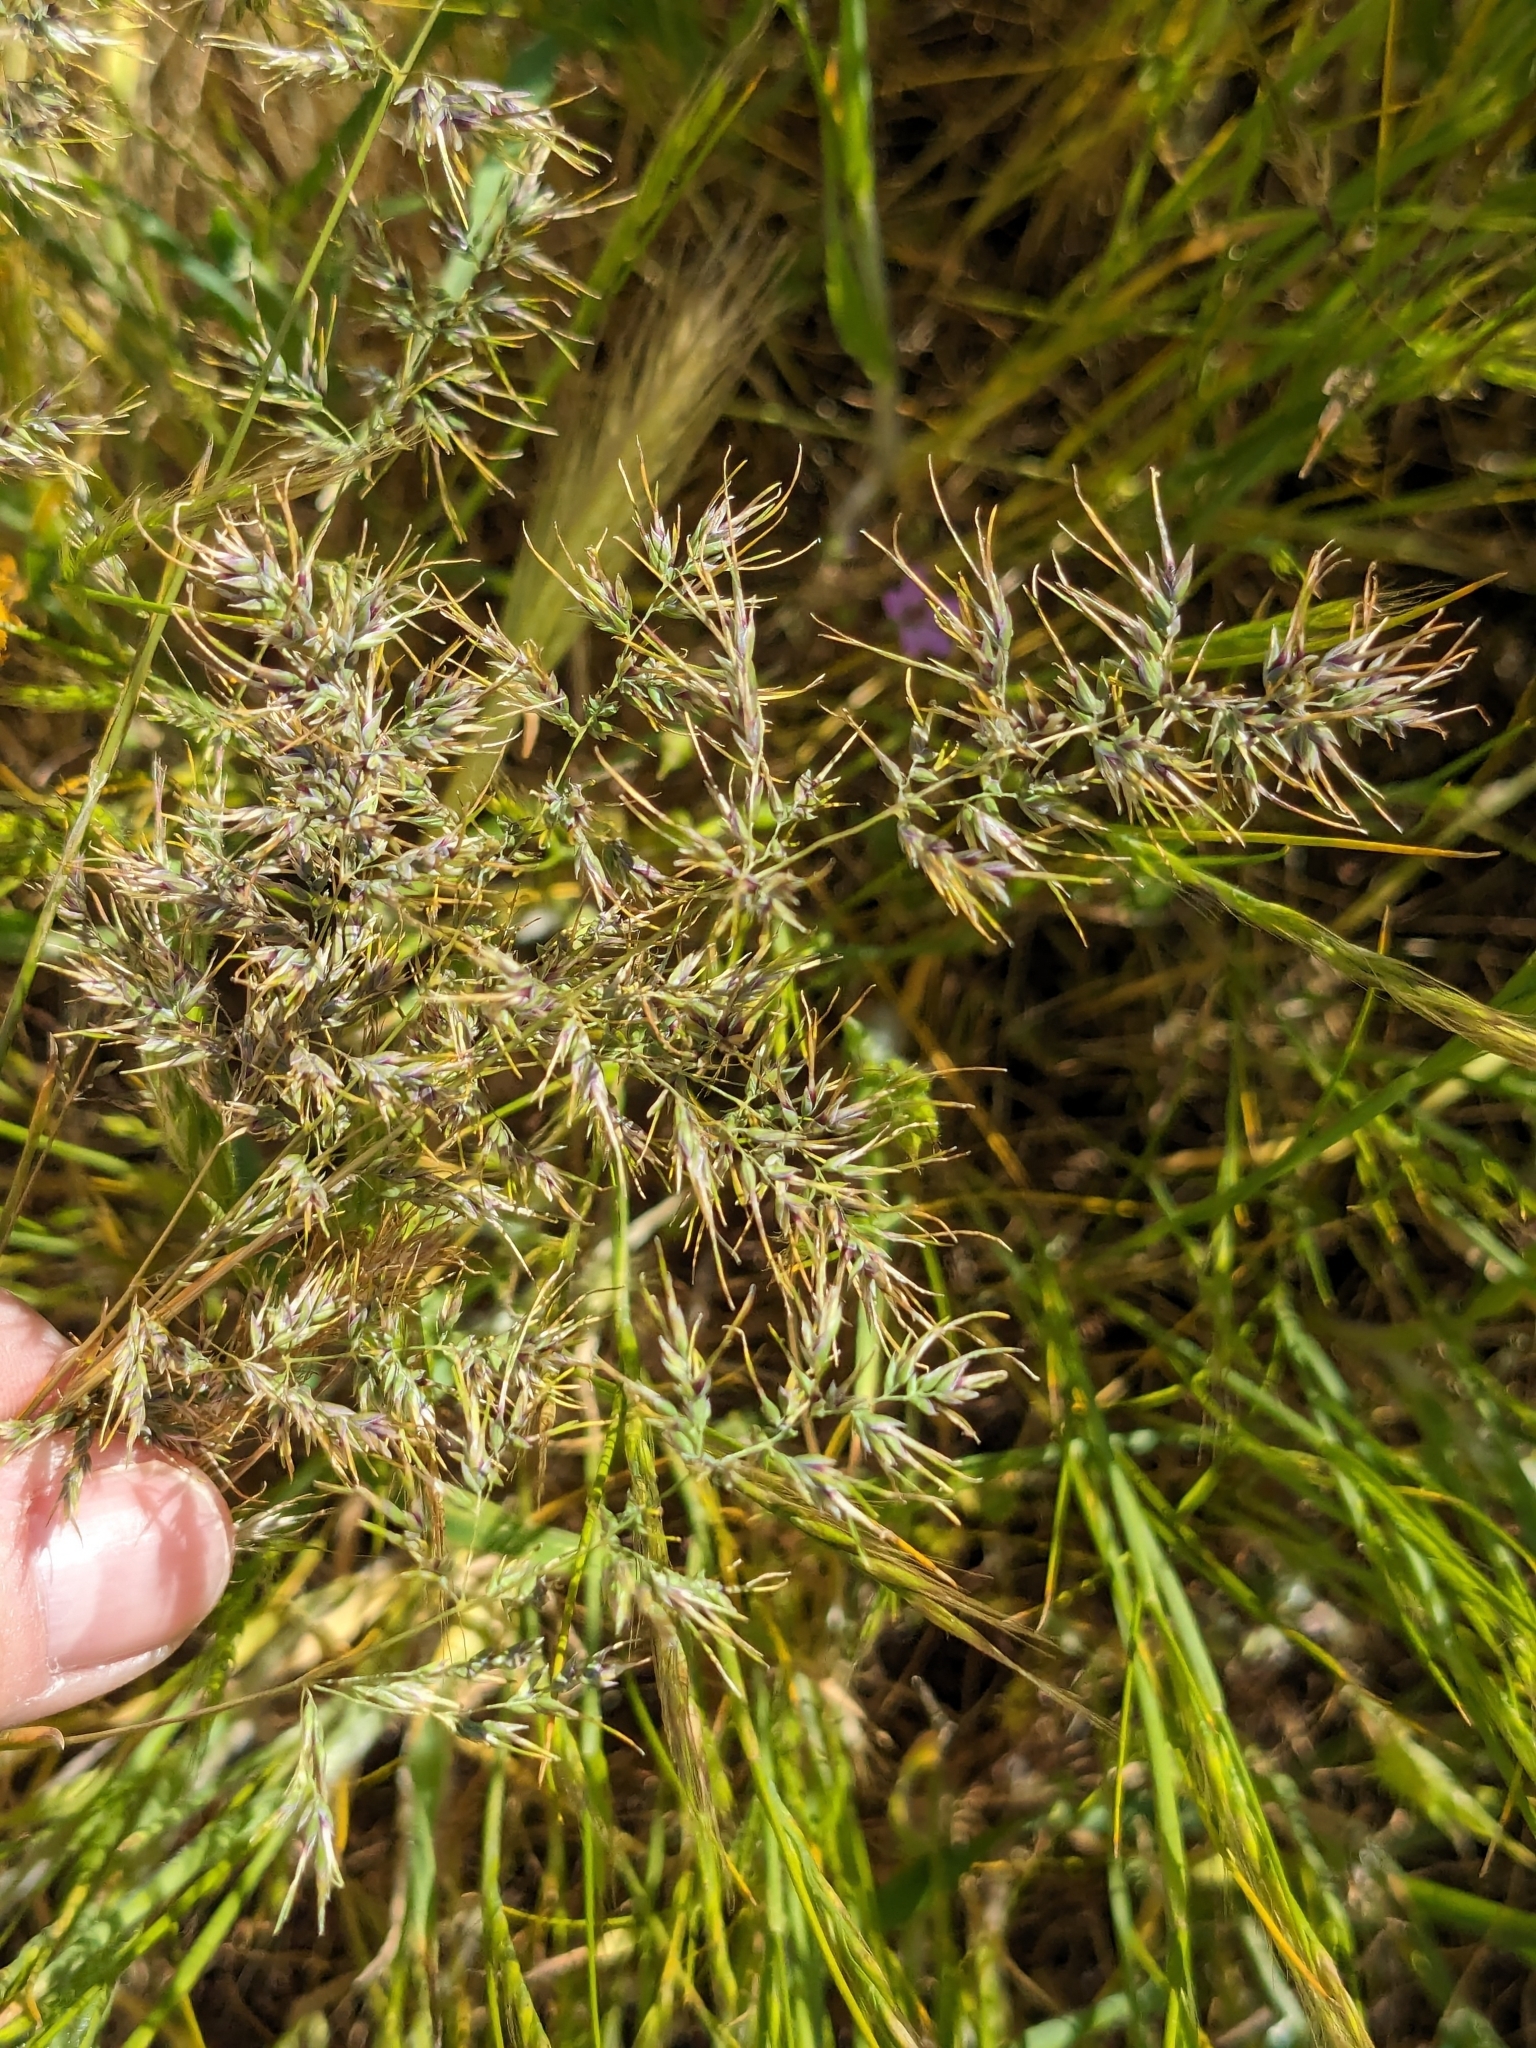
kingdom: Plantae
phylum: Tracheophyta
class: Liliopsida
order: Poales
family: Poaceae
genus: Poa
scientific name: Poa bulbosa
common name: Bulbous bluegrass
